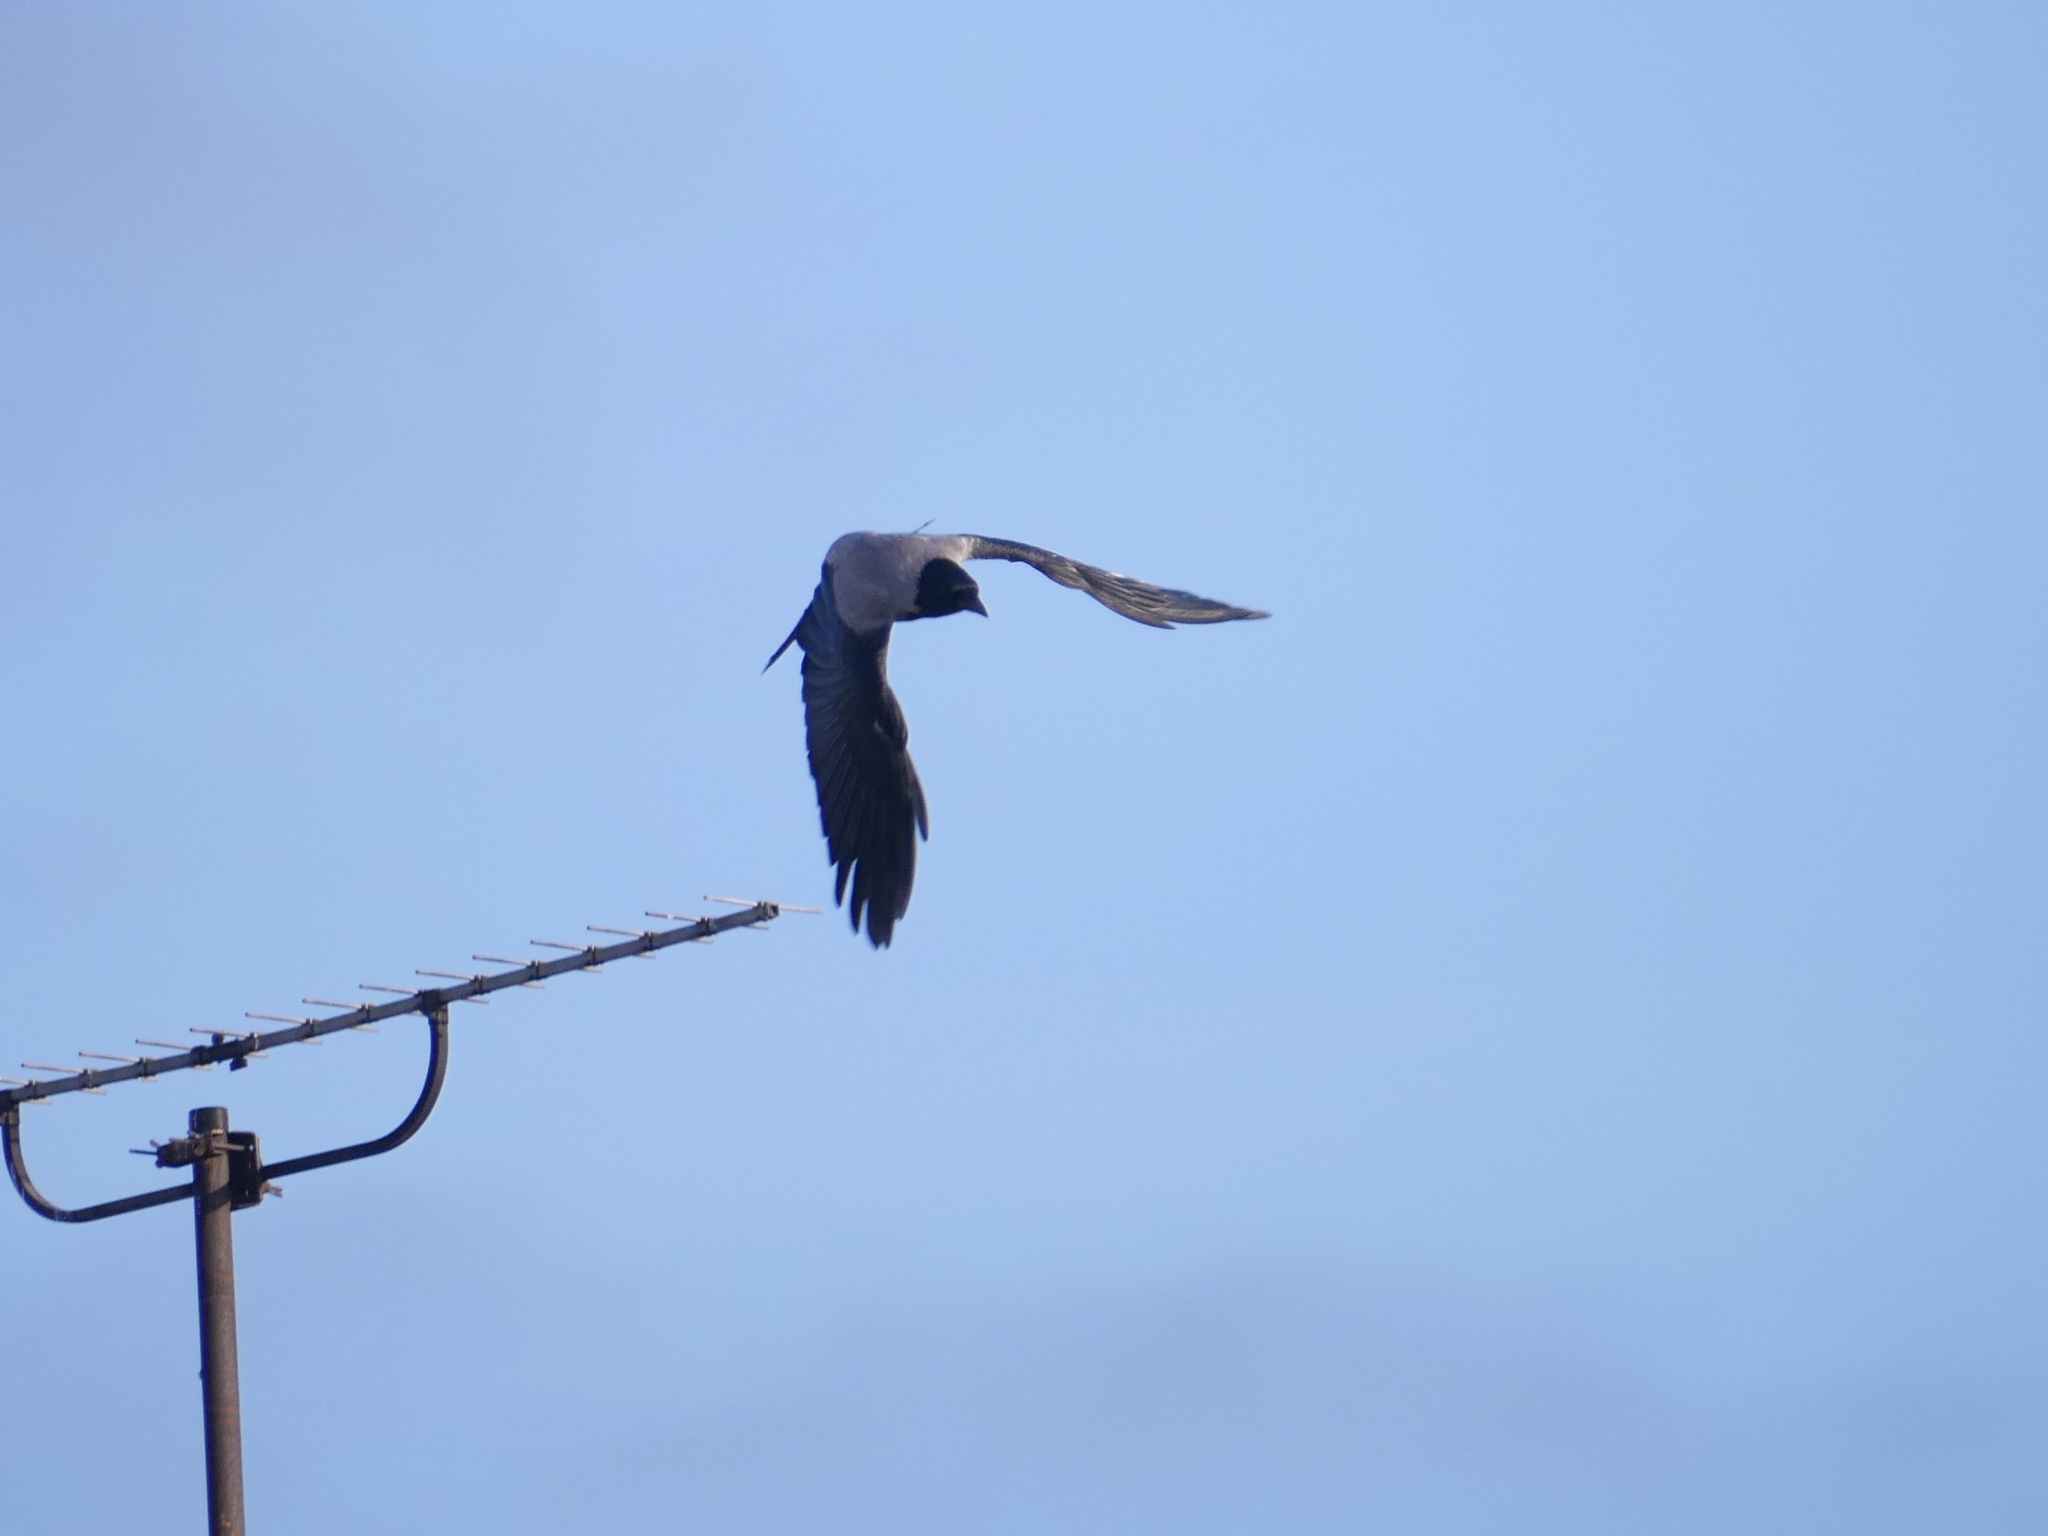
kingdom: Animalia
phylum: Chordata
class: Aves
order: Passeriformes
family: Corvidae
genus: Corvus
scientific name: Corvus cornix
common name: Hooded crow
